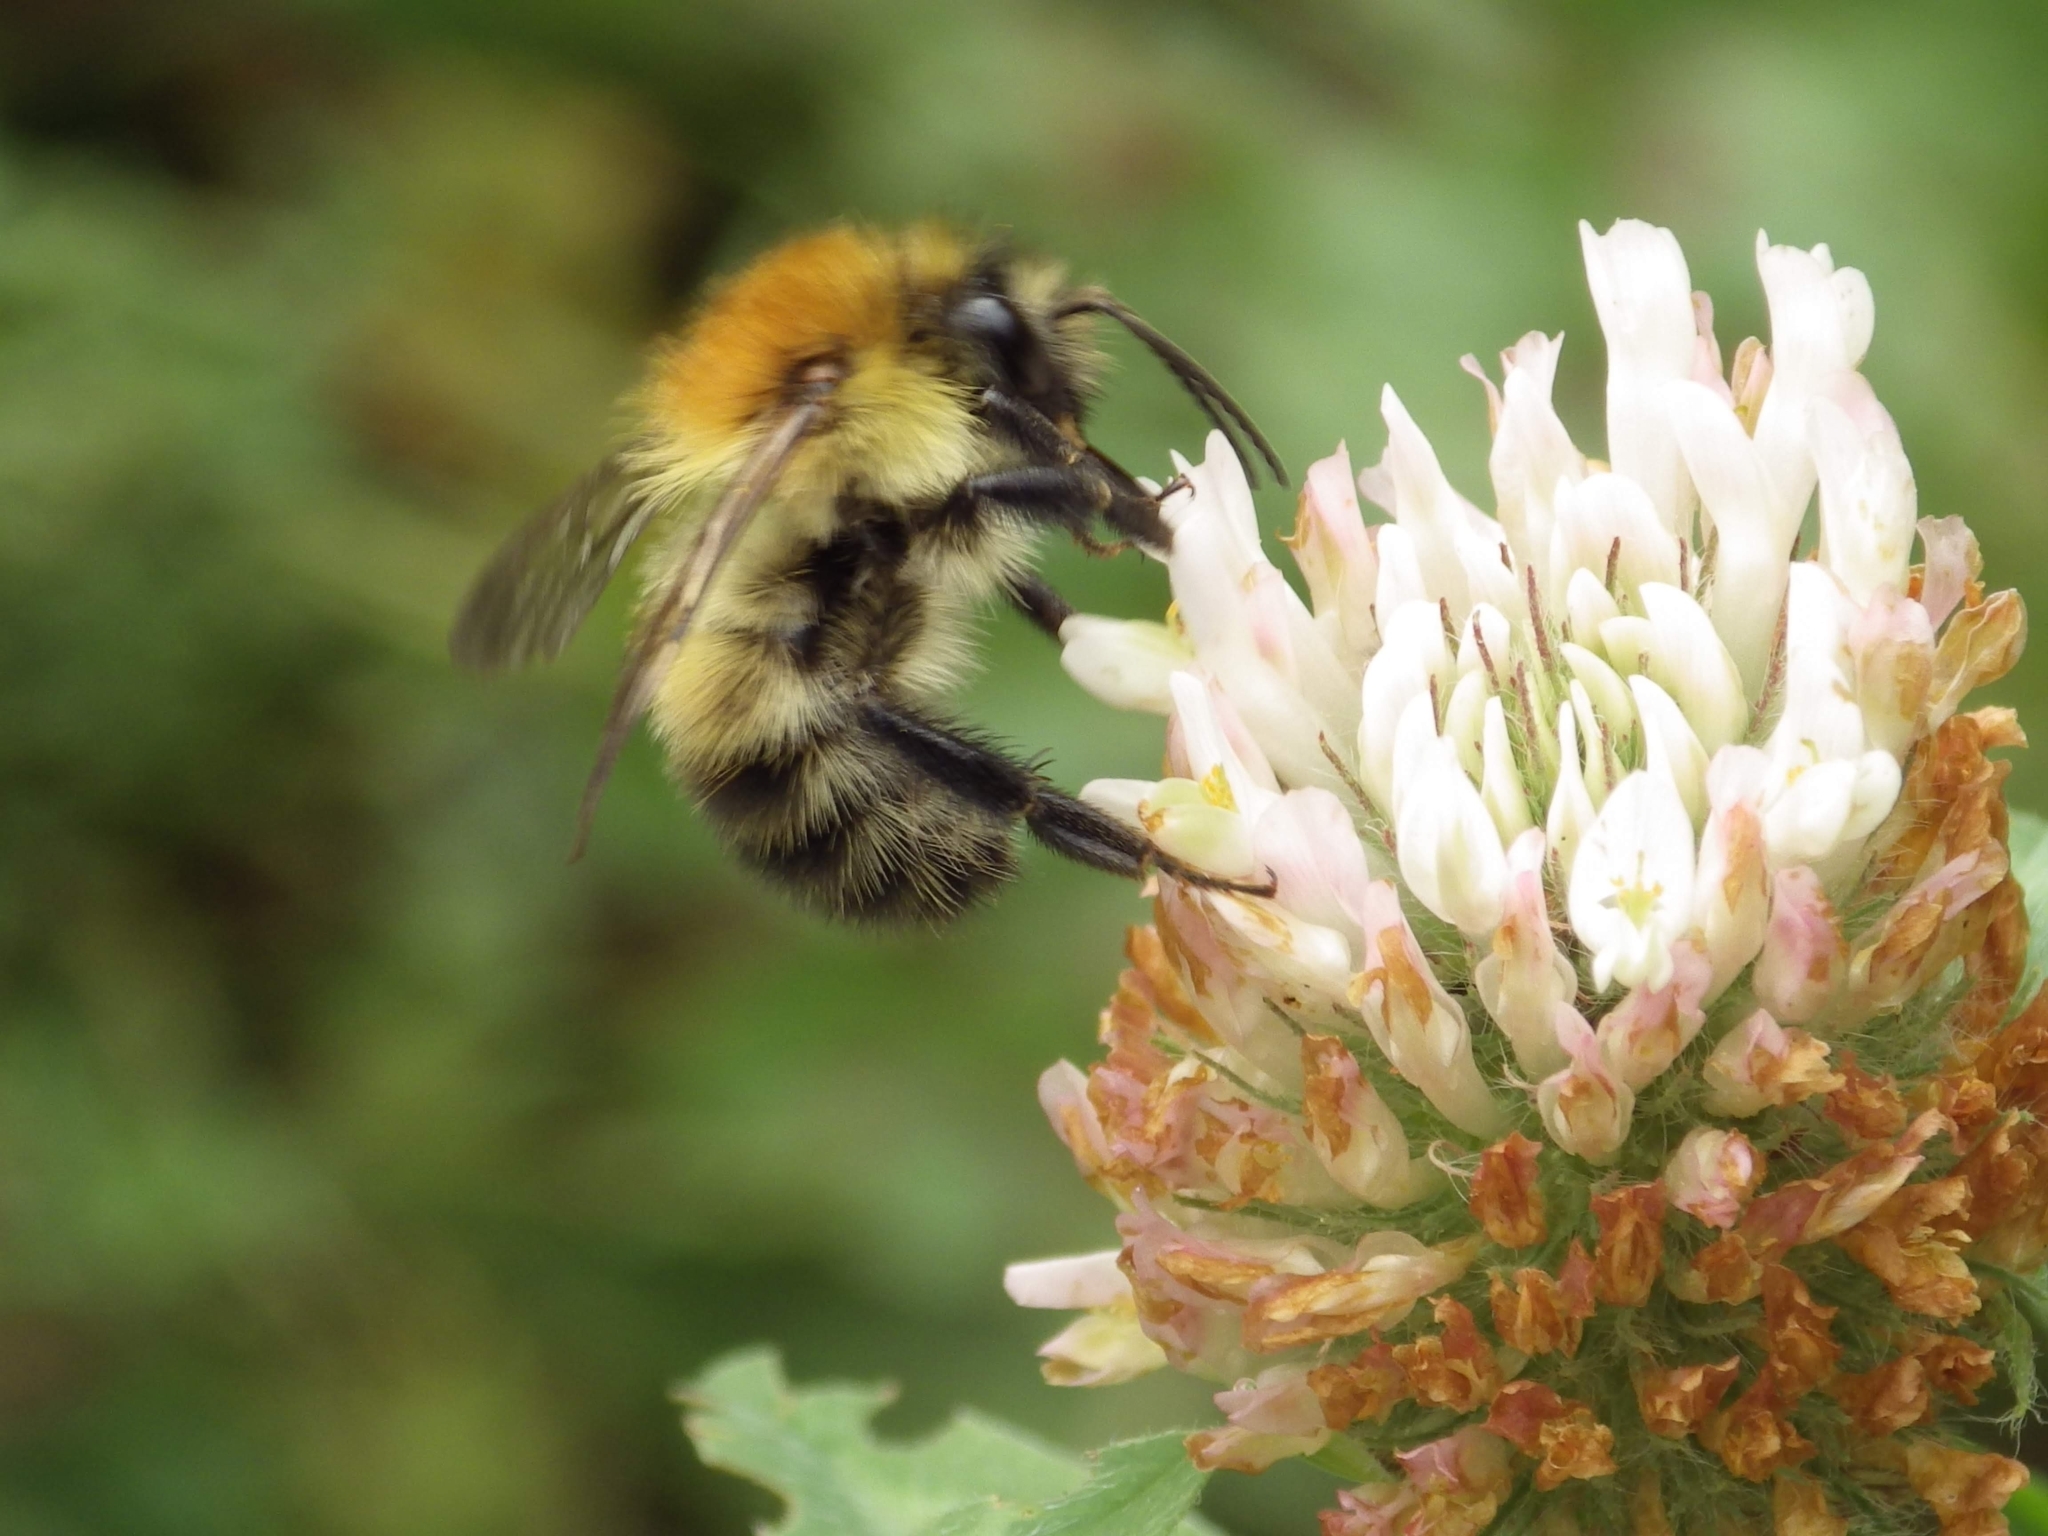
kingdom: Animalia
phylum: Arthropoda
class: Insecta
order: Hymenoptera
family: Apidae
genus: Bombus
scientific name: Bombus pascuorum
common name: Common carder bee
